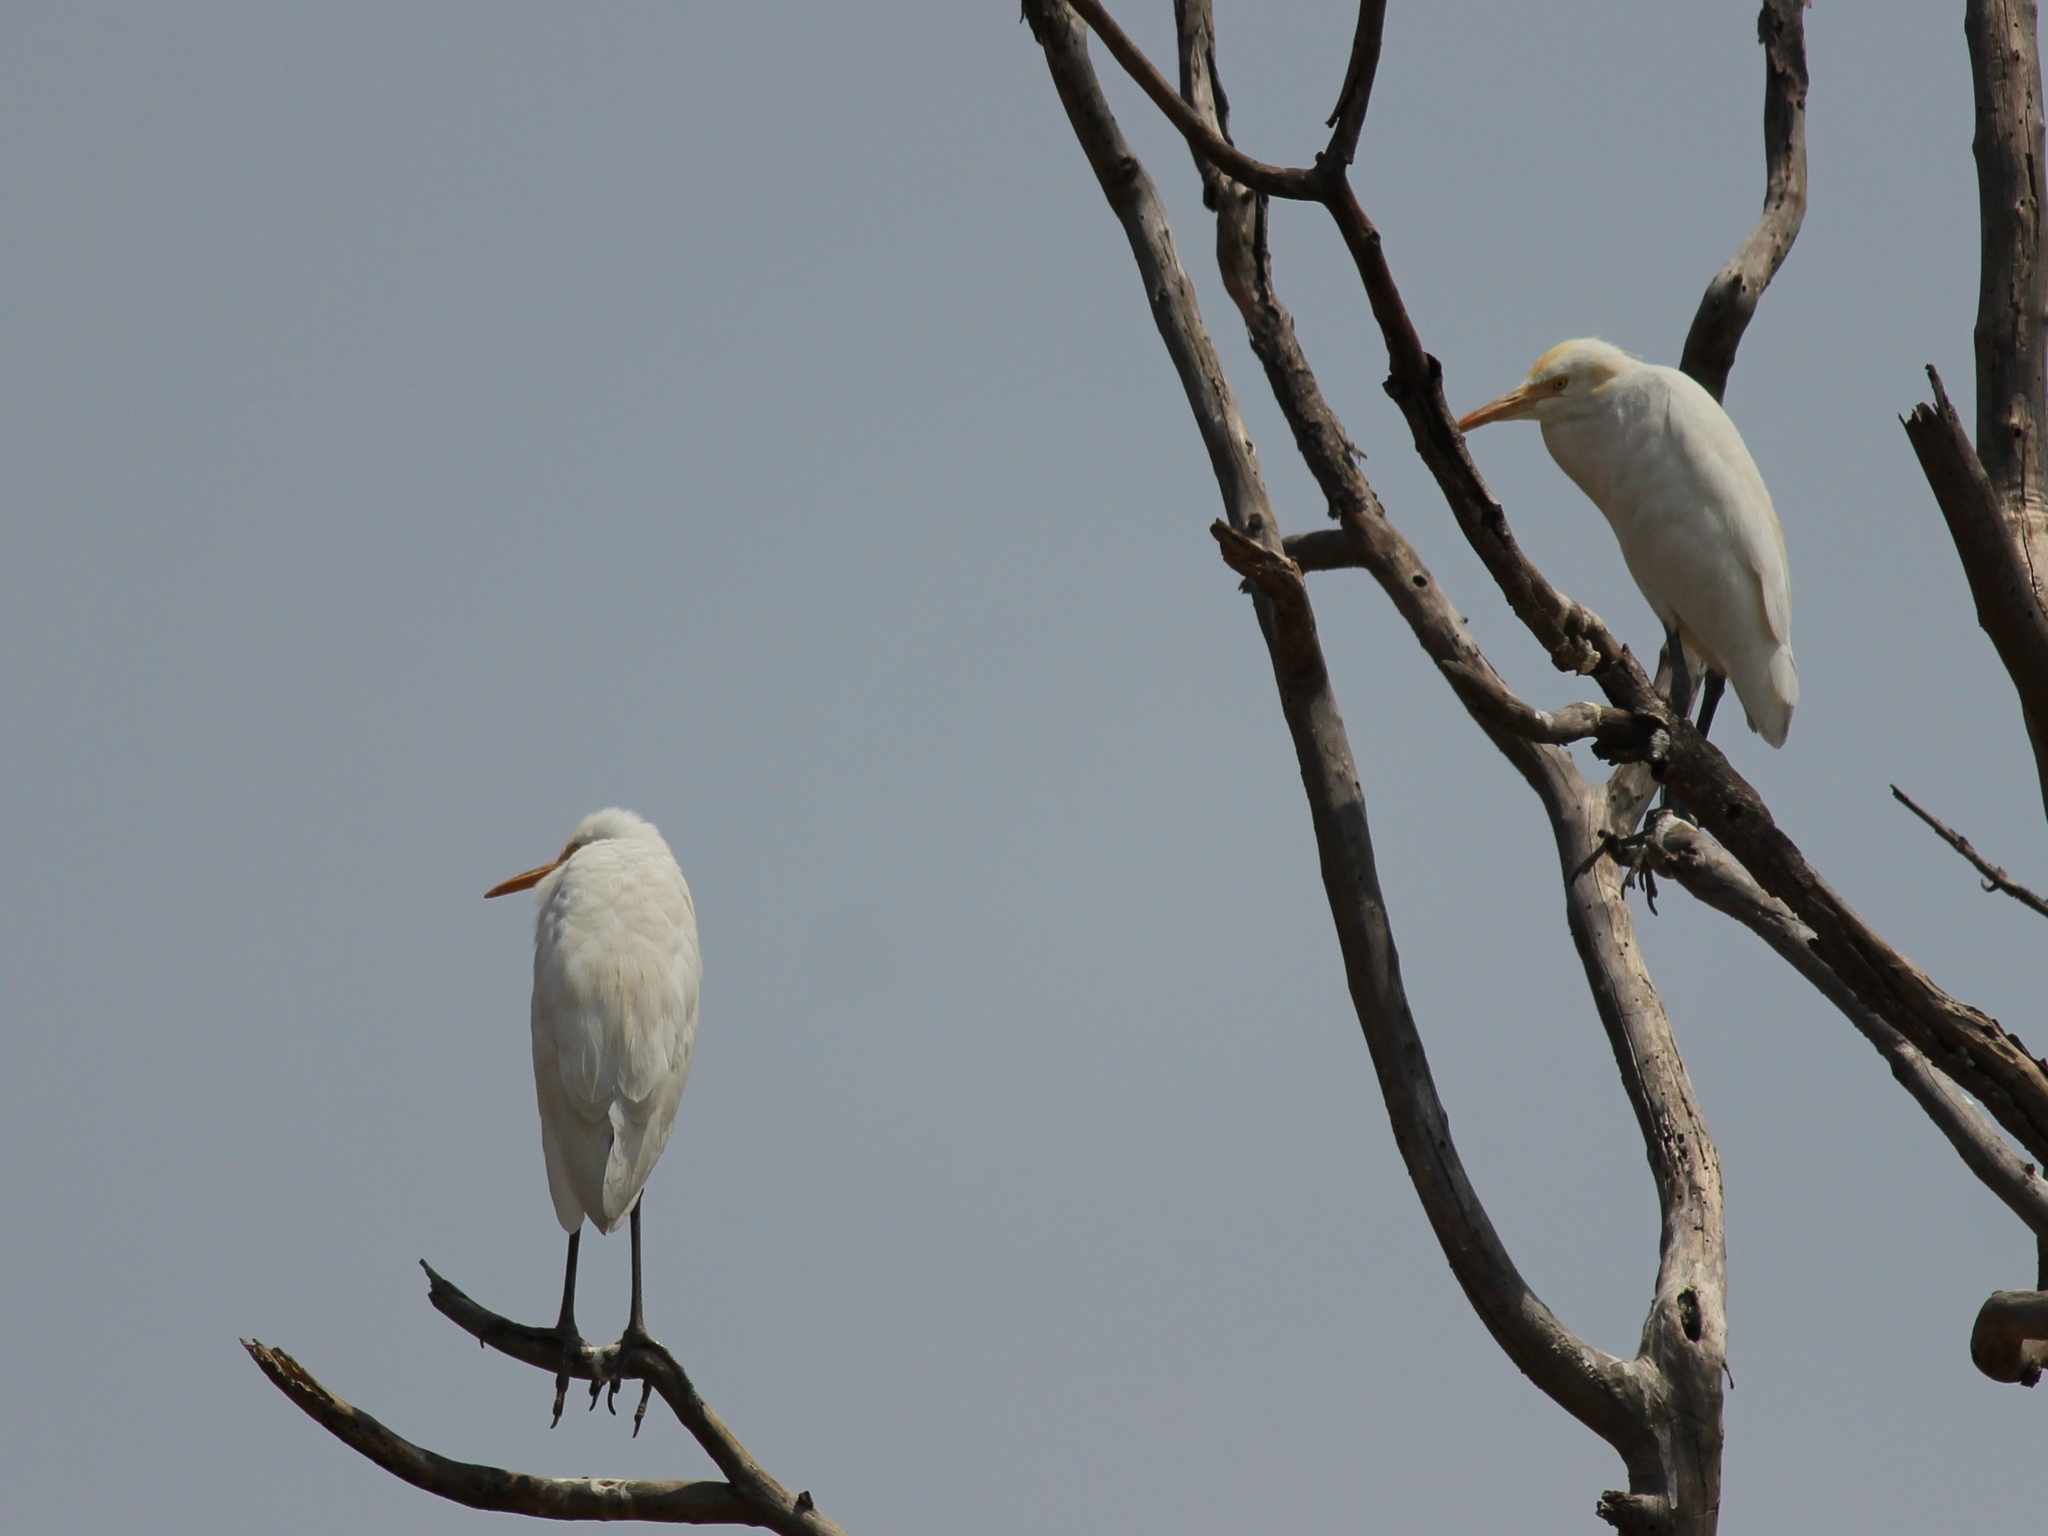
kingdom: Animalia
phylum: Chordata
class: Aves
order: Pelecaniformes
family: Ardeidae
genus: Bubulcus
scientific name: Bubulcus coromandus
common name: Eastern cattle egret
